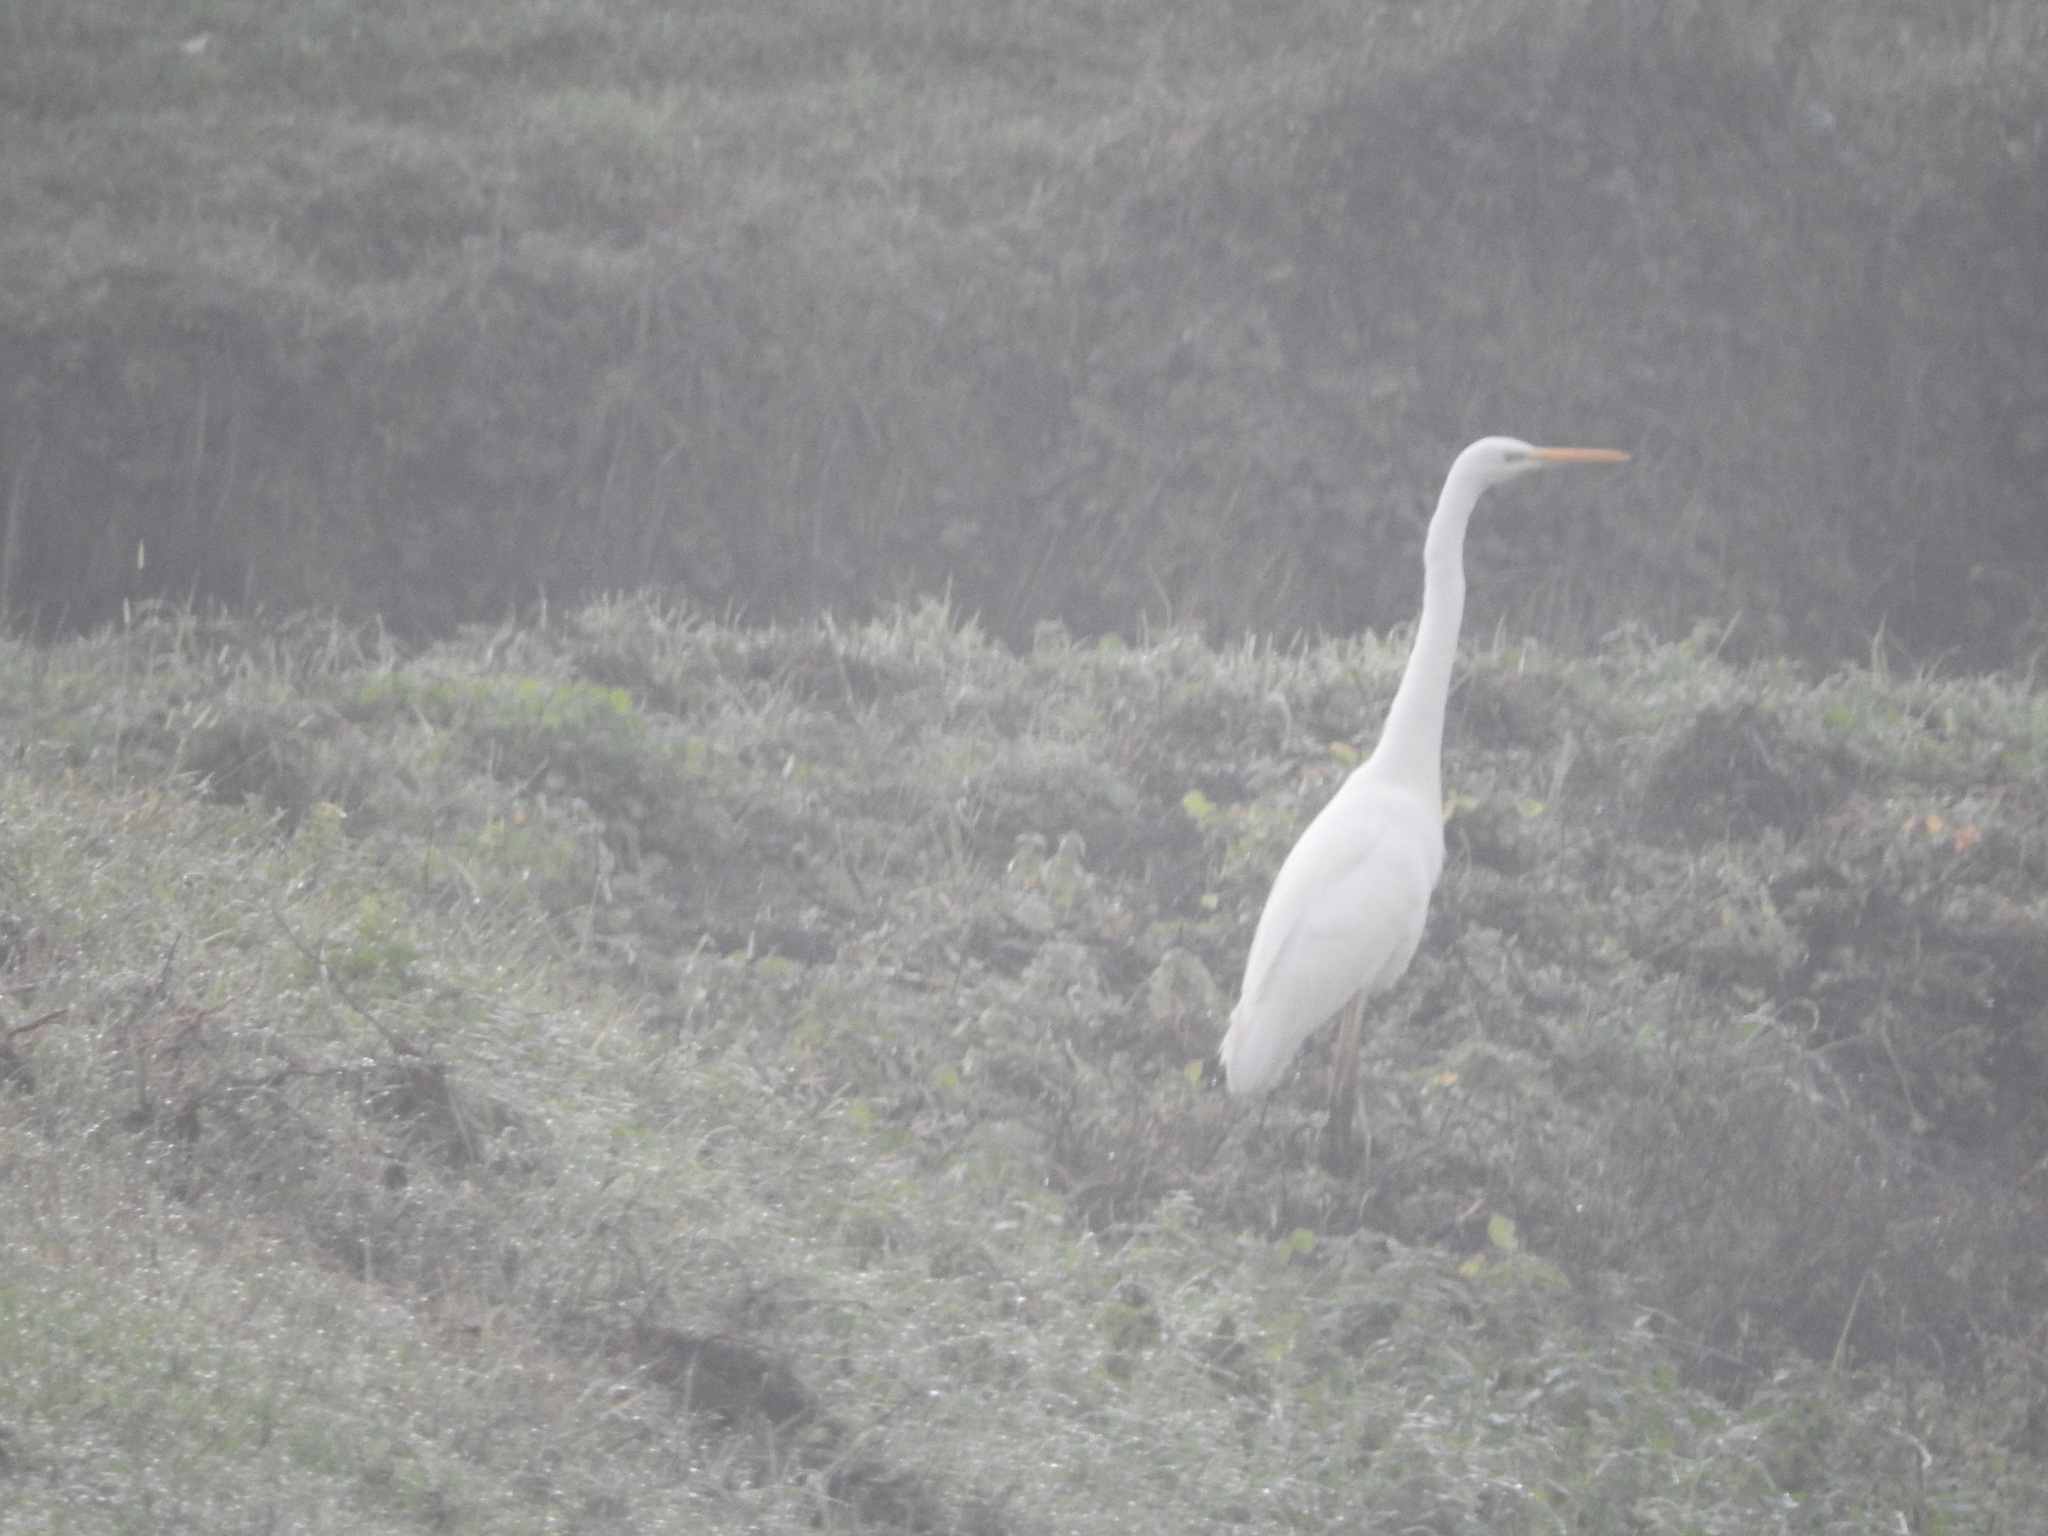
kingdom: Animalia
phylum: Chordata
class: Aves
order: Pelecaniformes
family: Ardeidae
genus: Ardea
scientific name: Ardea alba
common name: Great egret
